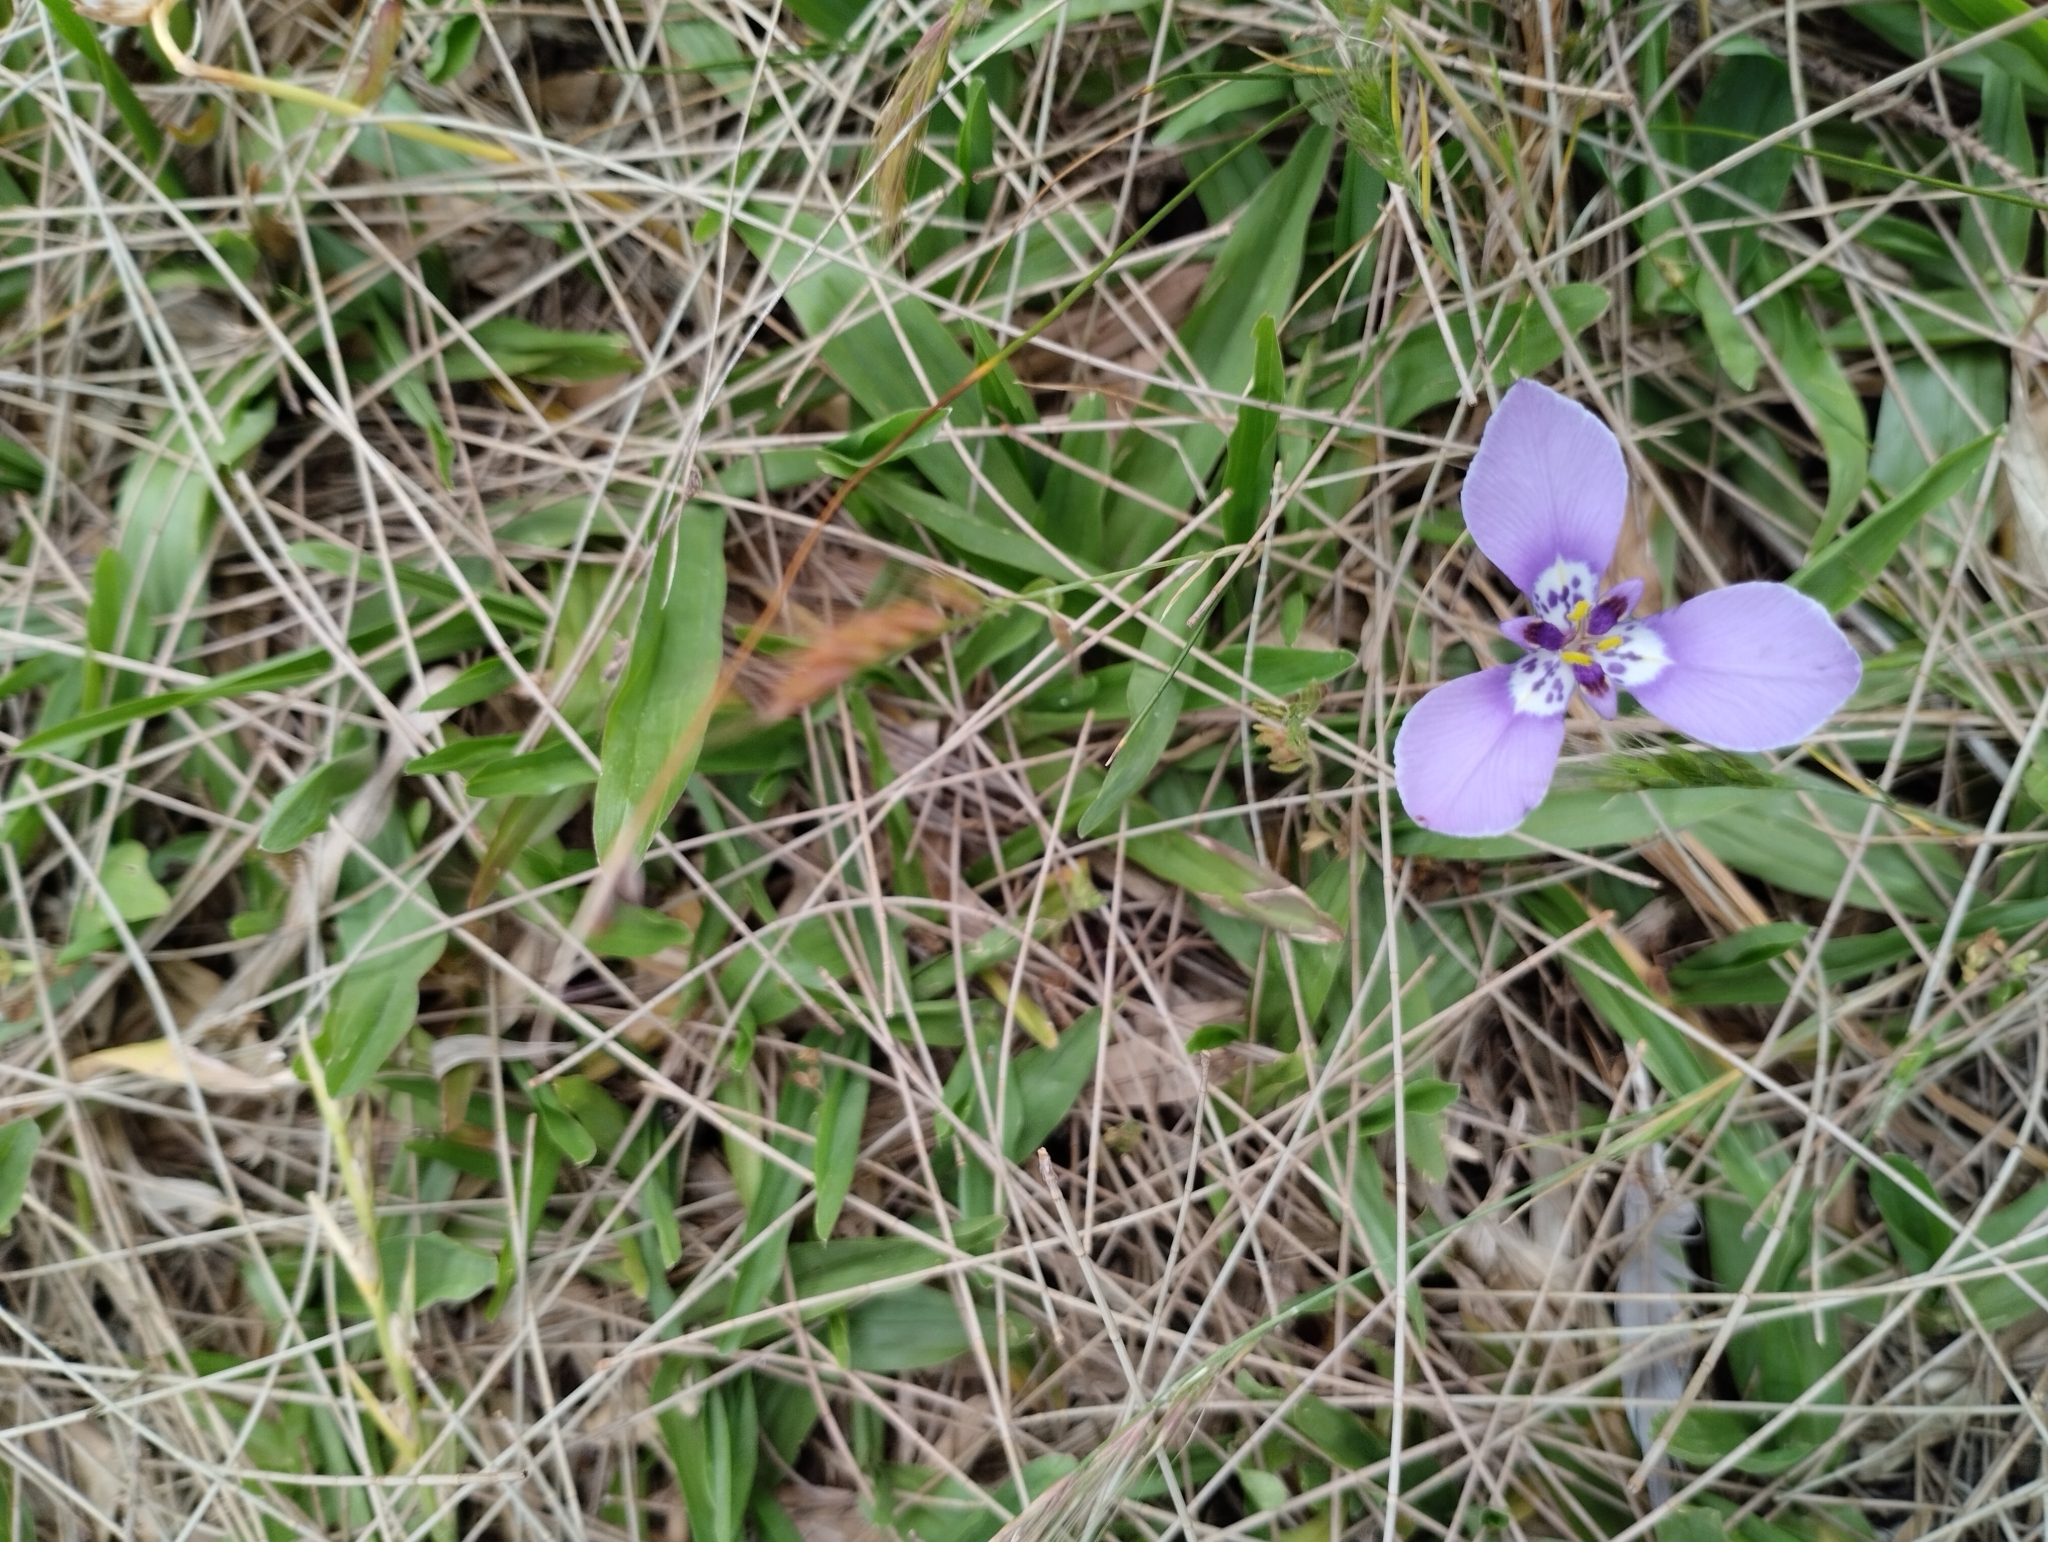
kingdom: Plantae
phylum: Tracheophyta
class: Liliopsida
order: Asparagales
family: Iridaceae
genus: Herbertia
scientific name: Herbertia lahue
